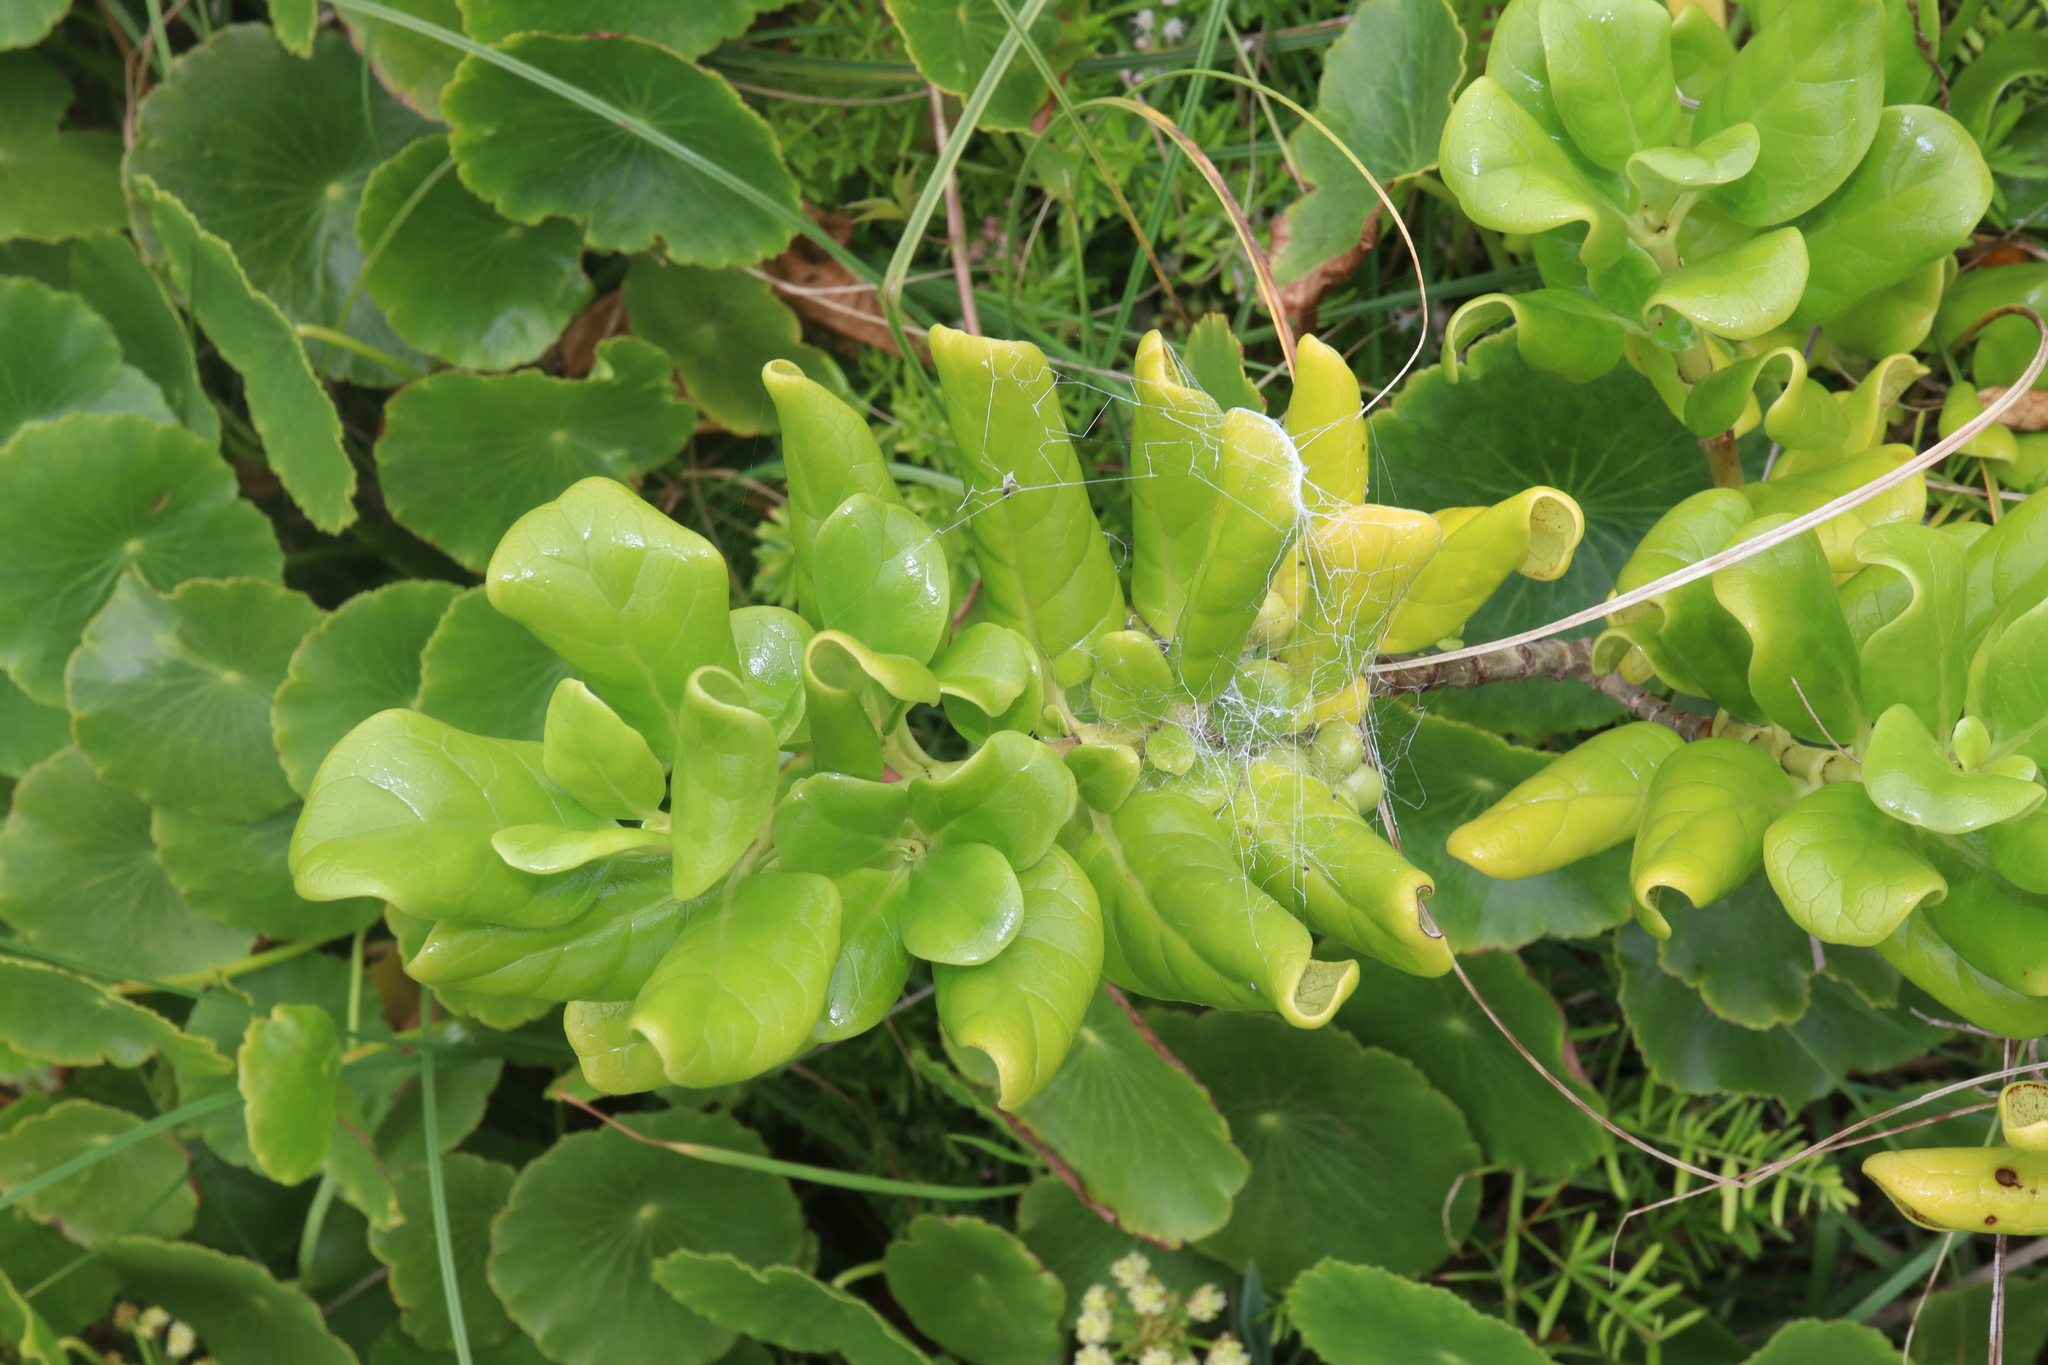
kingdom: Plantae
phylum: Tracheophyta
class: Magnoliopsida
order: Gentianales
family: Rubiaceae
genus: Coprosma
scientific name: Coprosma repens
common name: Tree bedstraw
